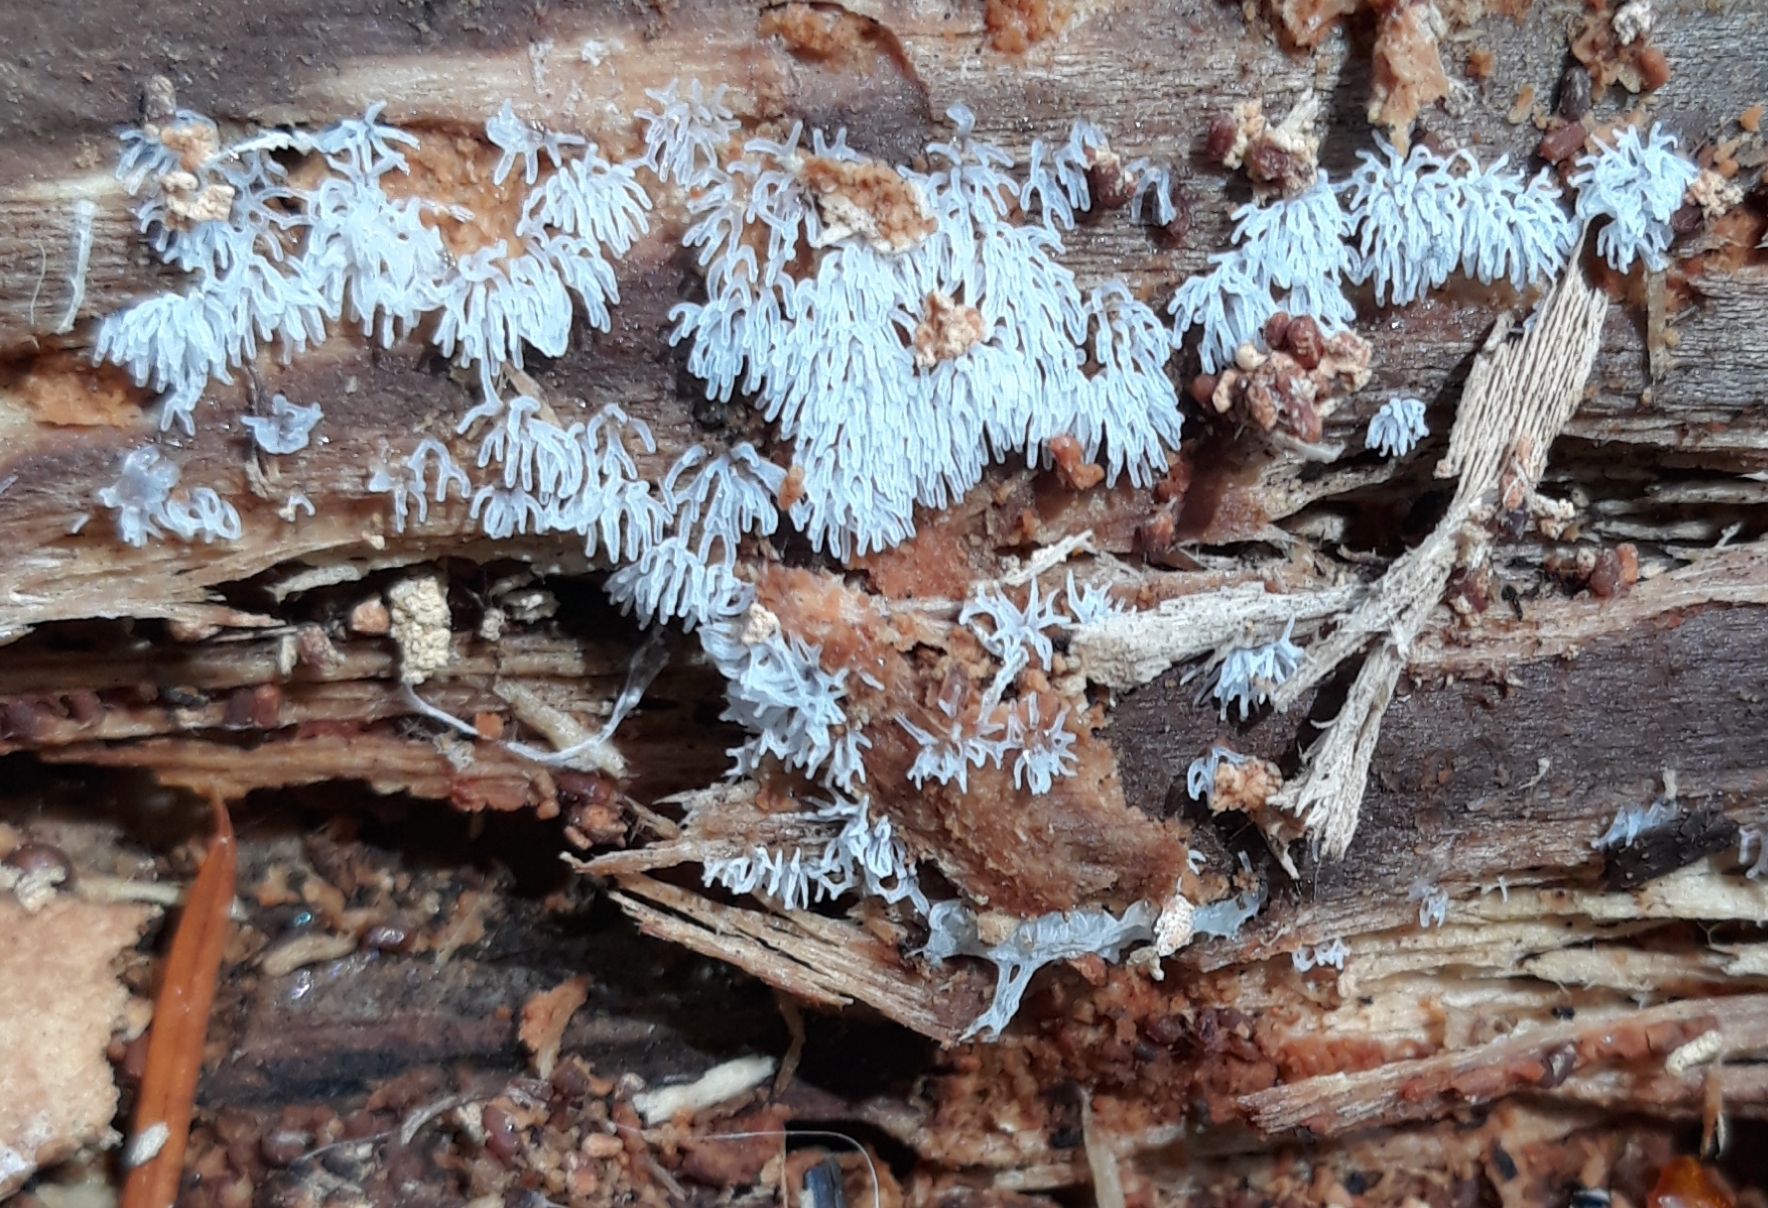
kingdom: Protozoa
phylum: Mycetozoa
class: Protosteliomycetes
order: Ceratiomyxales
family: Ceratiomyxaceae
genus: Ceratiomyxa
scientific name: Ceratiomyxa fruticulosa
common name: Honeycomb coral slime mold
